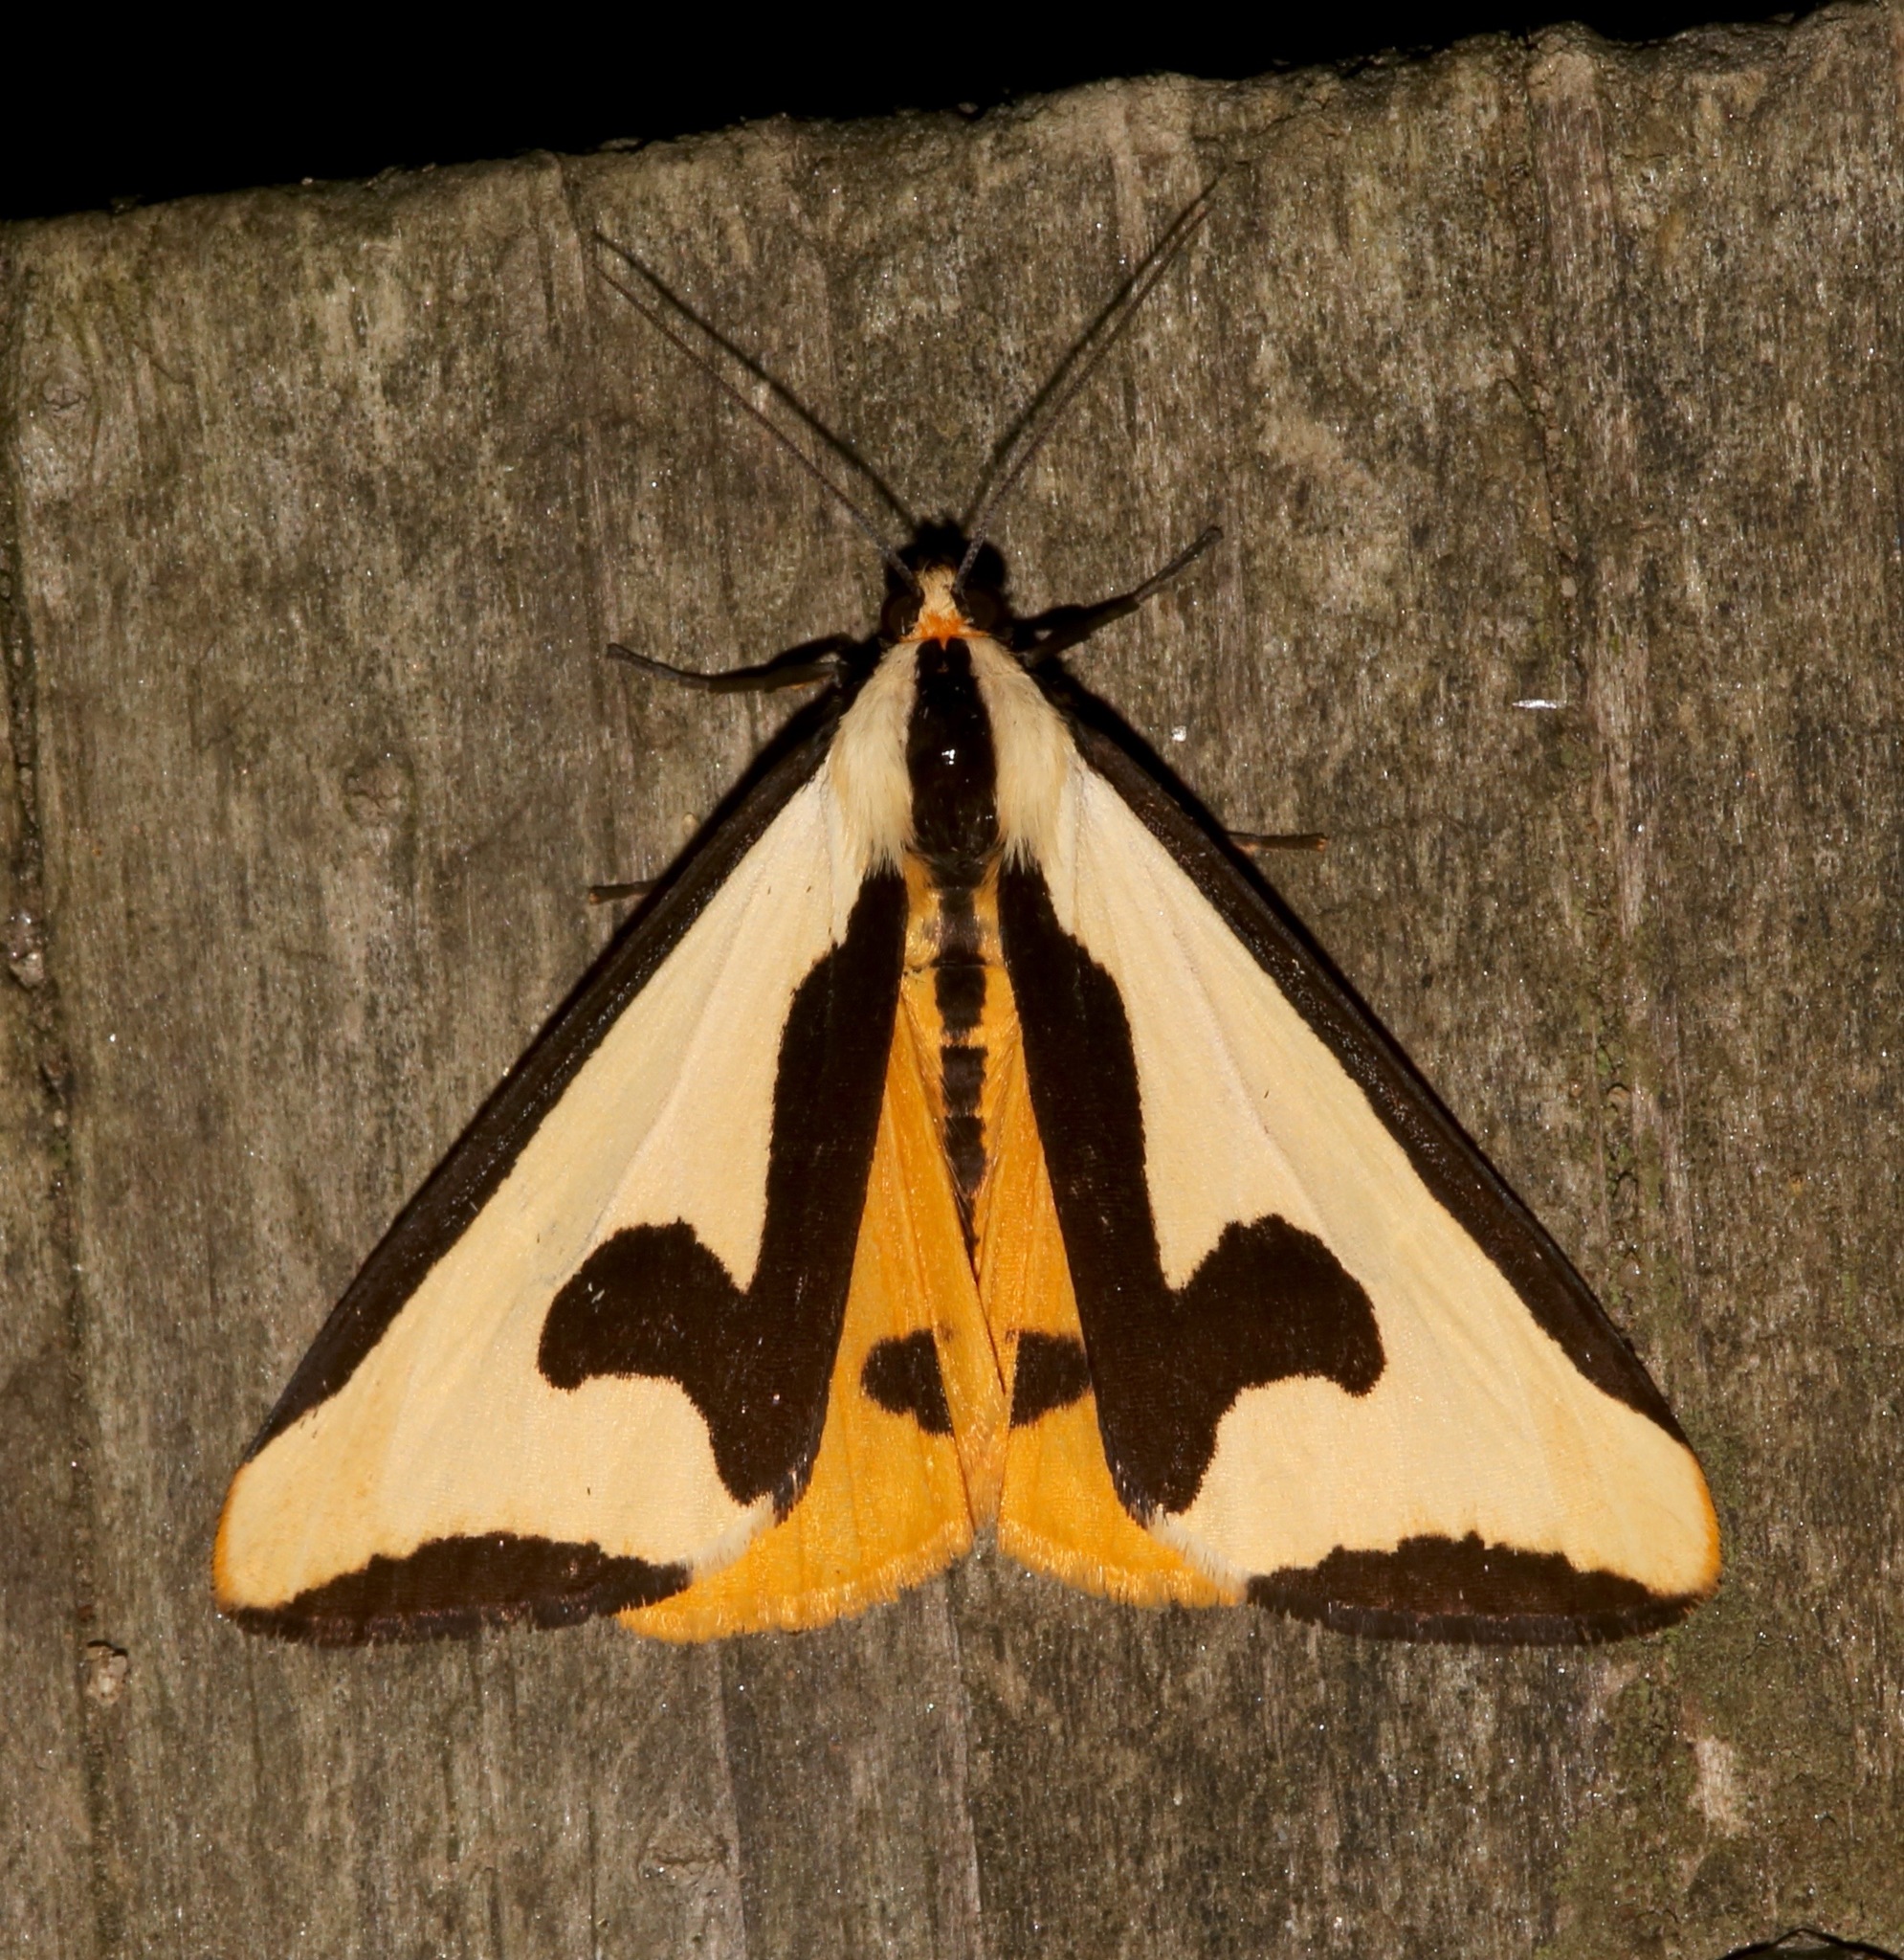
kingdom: Animalia
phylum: Arthropoda
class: Insecta
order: Lepidoptera
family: Erebidae
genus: Haploa
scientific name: Haploa clymene
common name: Clymene moth
